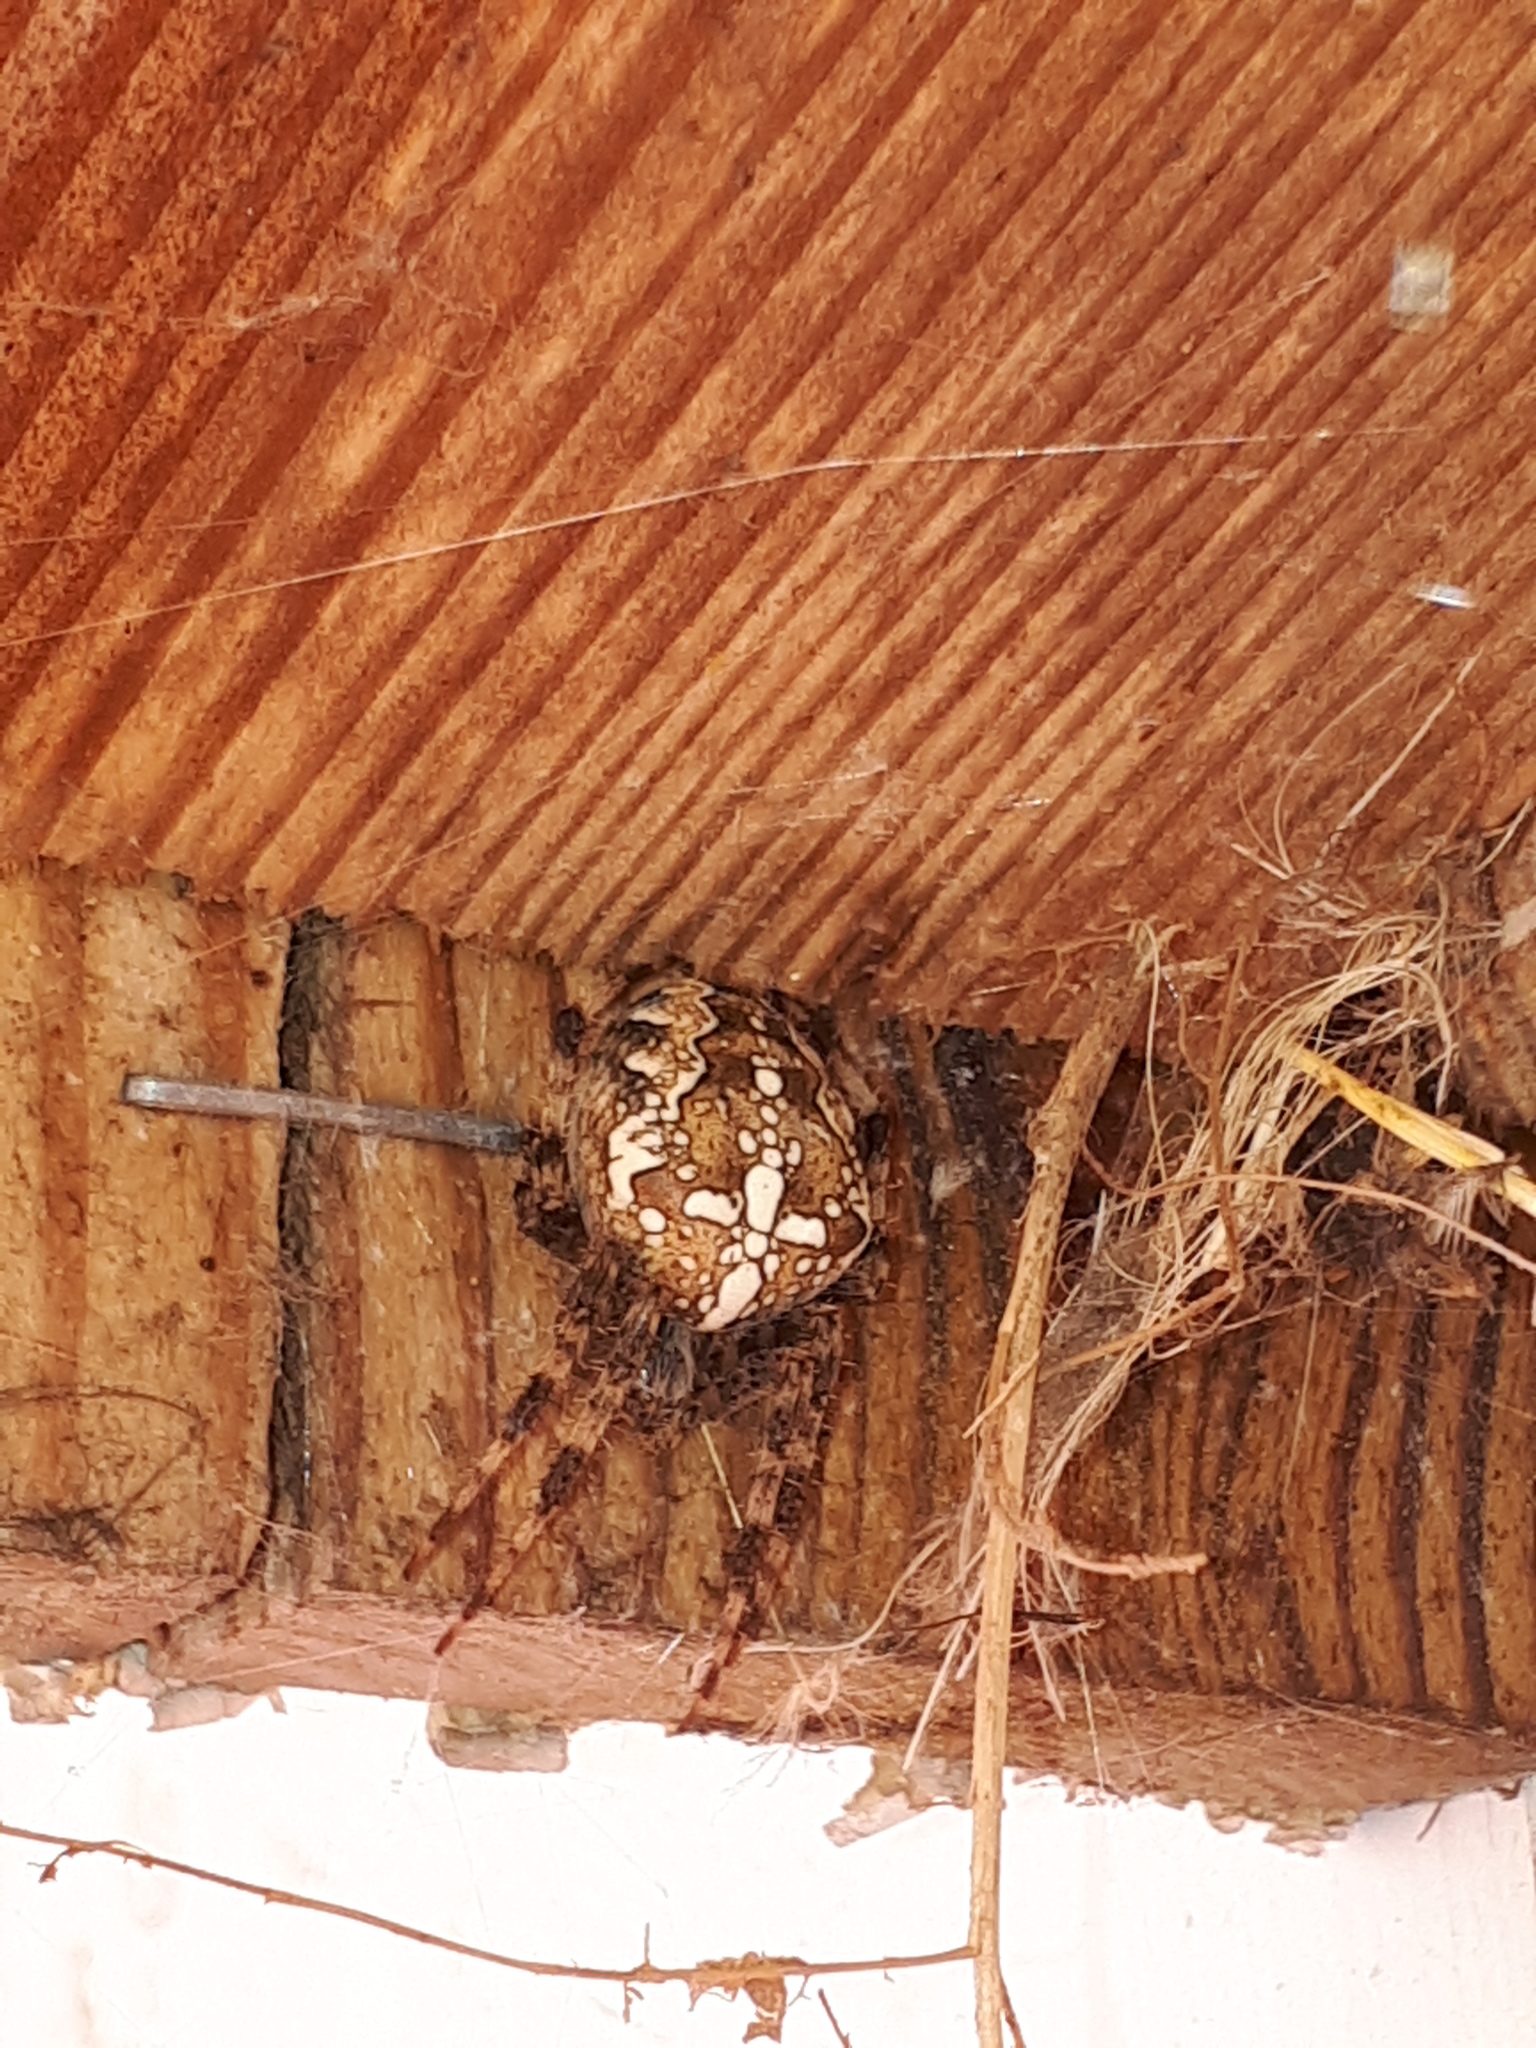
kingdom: Animalia
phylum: Arthropoda
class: Arachnida
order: Araneae
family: Araneidae
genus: Araneus
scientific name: Araneus diadematus
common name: Cross orbweaver
